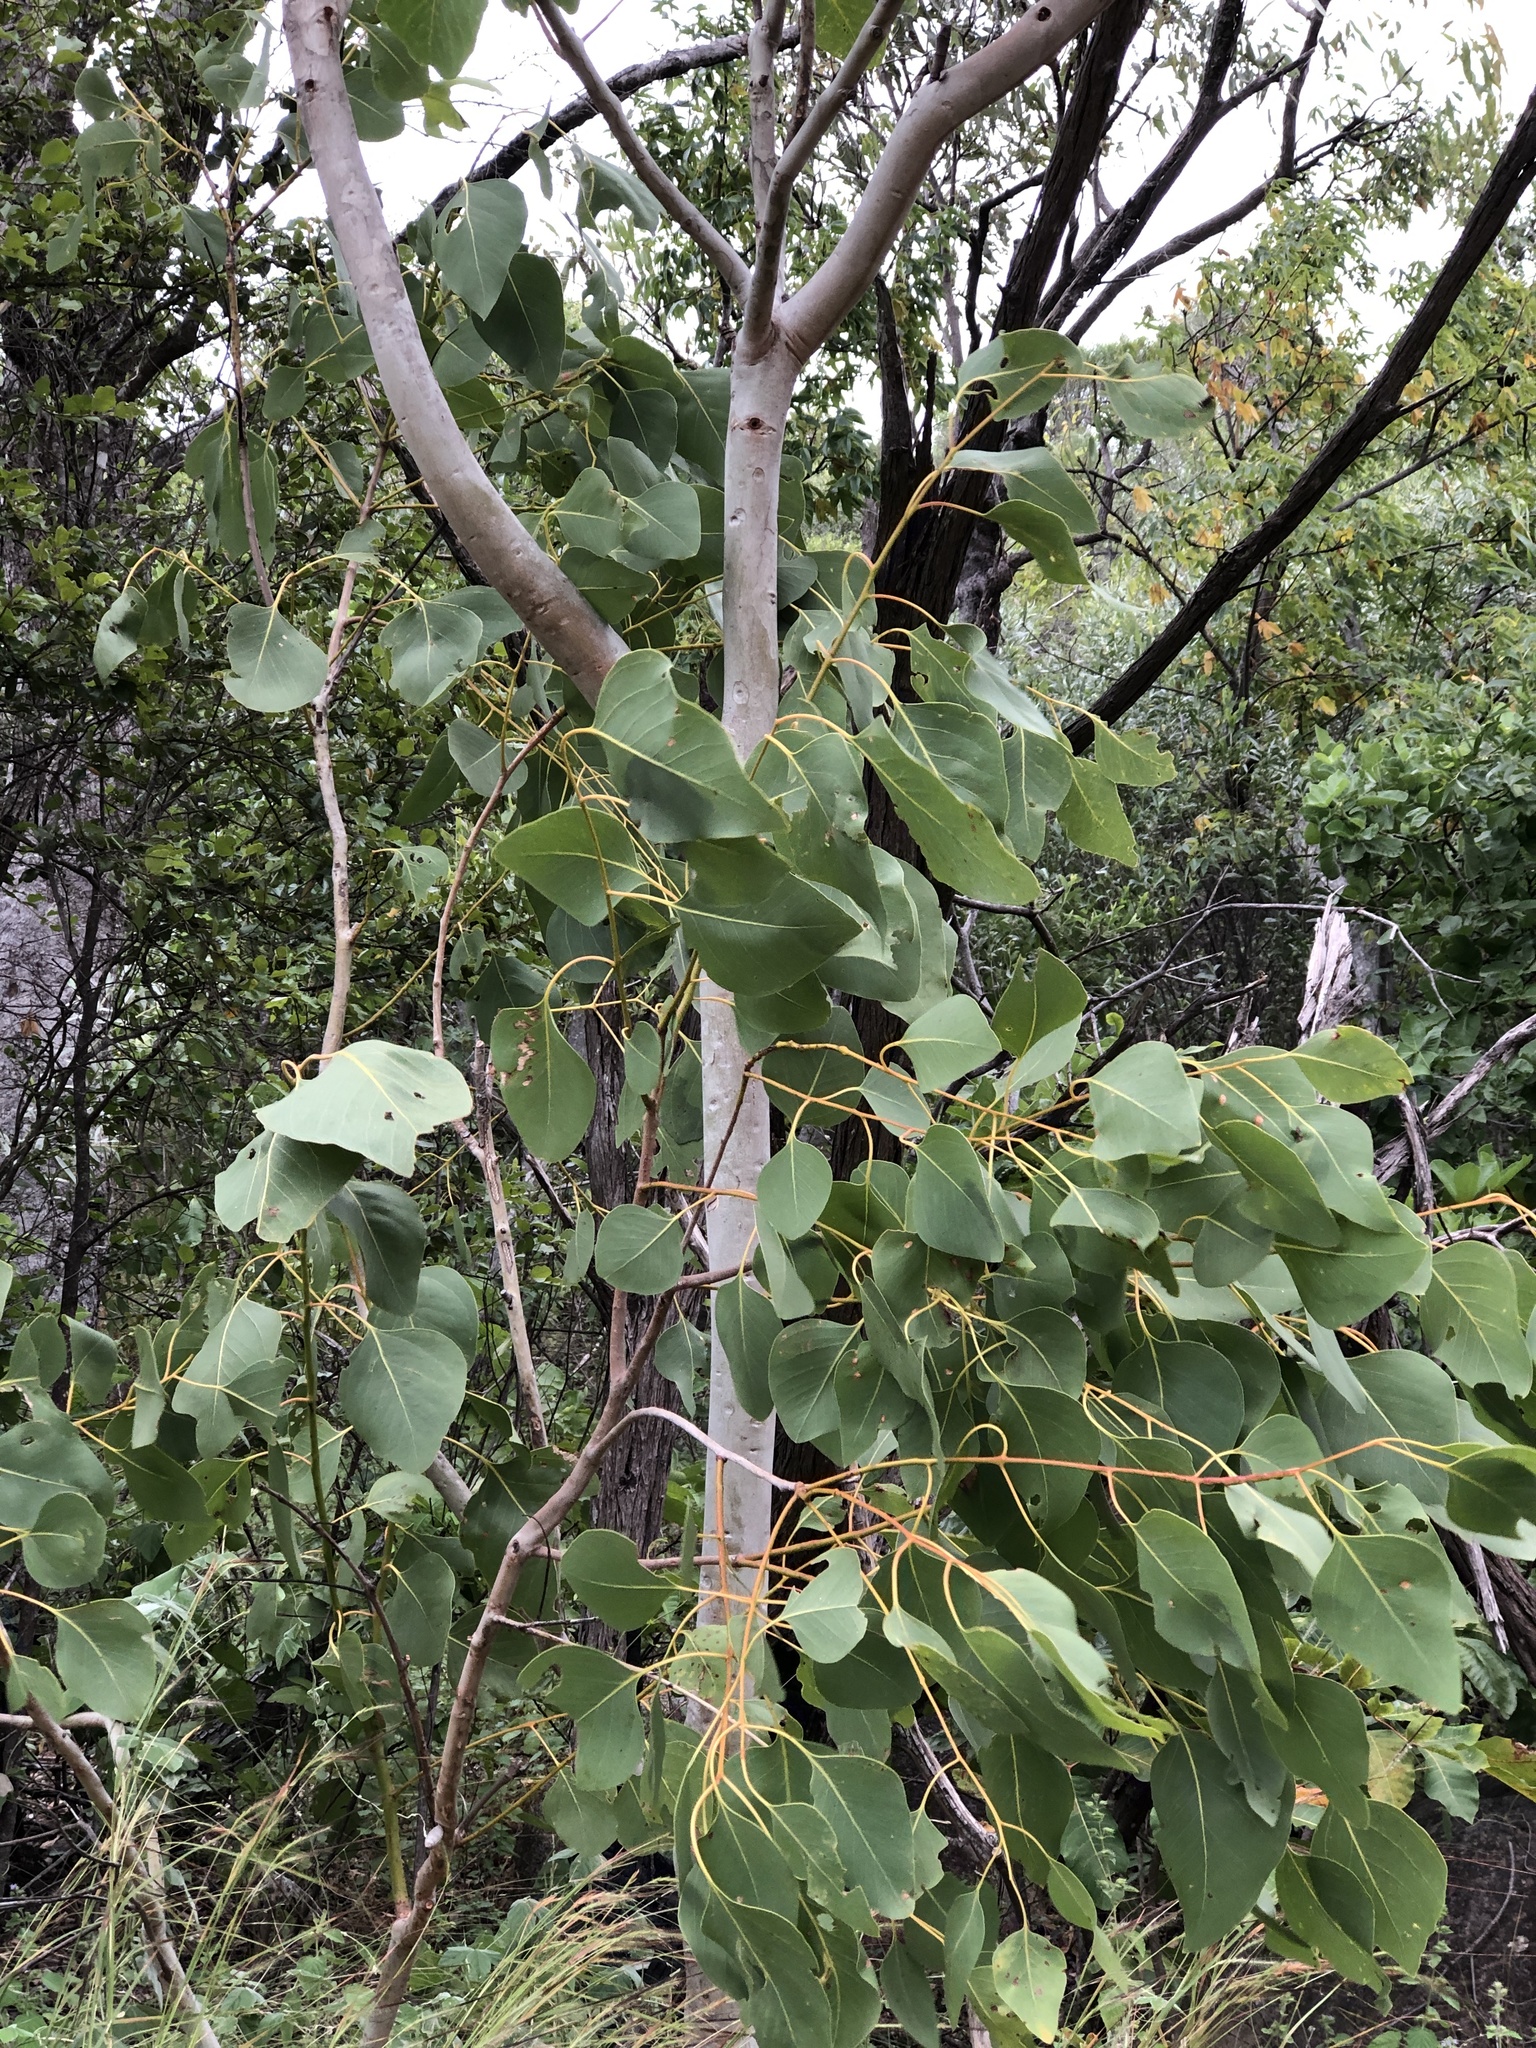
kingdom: Plantae
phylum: Tracheophyta
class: Magnoliopsida
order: Myrtales
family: Myrtaceae
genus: Eucalyptus
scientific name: Eucalyptus platyphylla
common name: Poplar-gum
